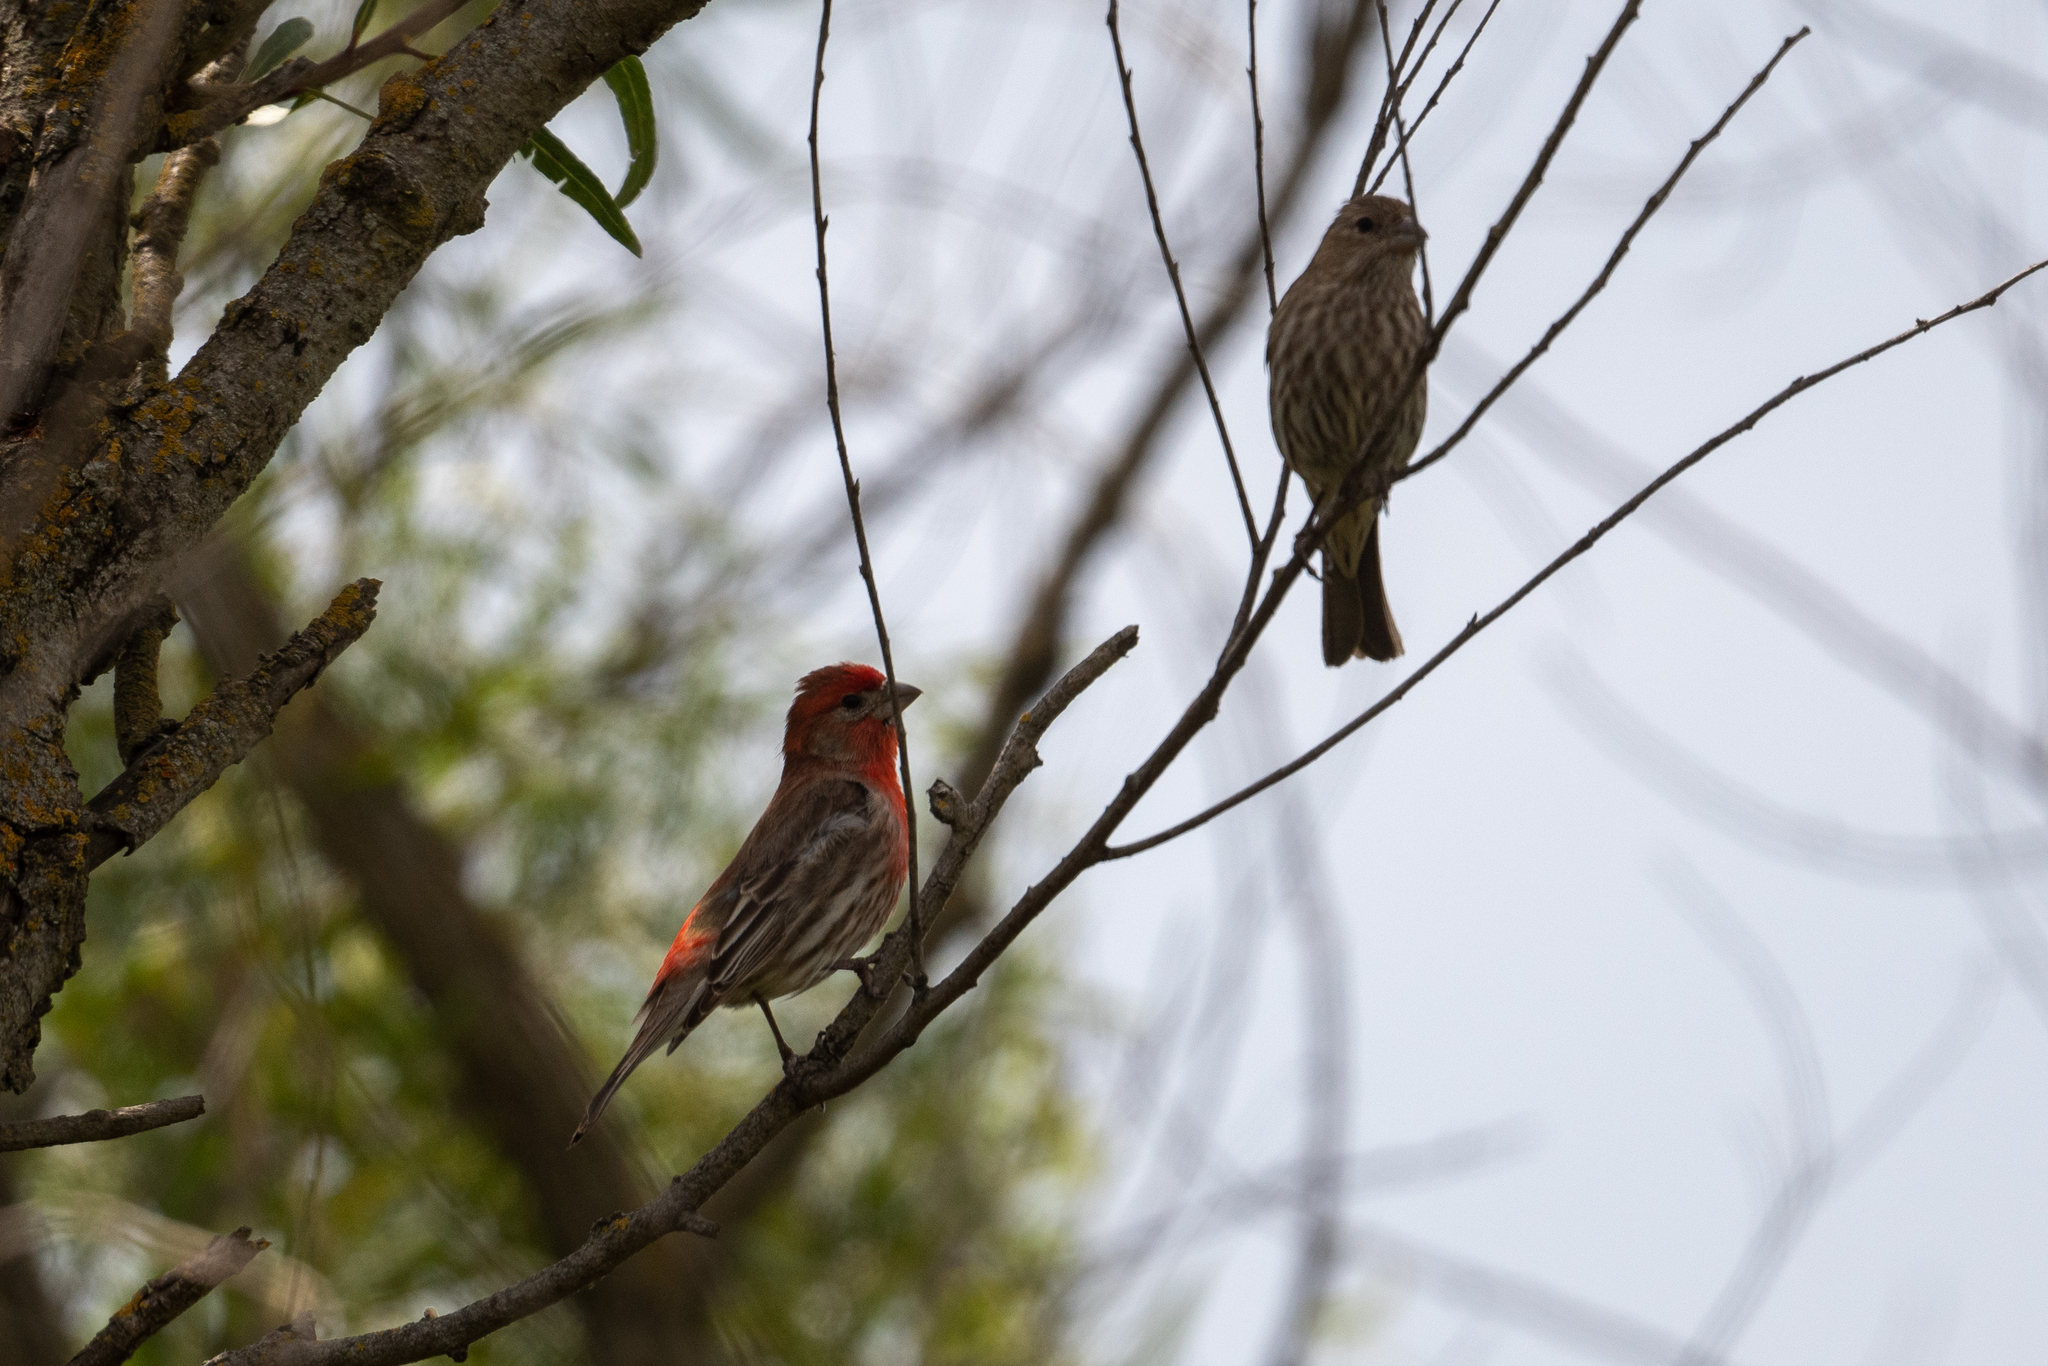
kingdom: Animalia
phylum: Chordata
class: Aves
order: Passeriformes
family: Fringillidae
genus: Haemorhous
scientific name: Haemorhous mexicanus
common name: House finch
